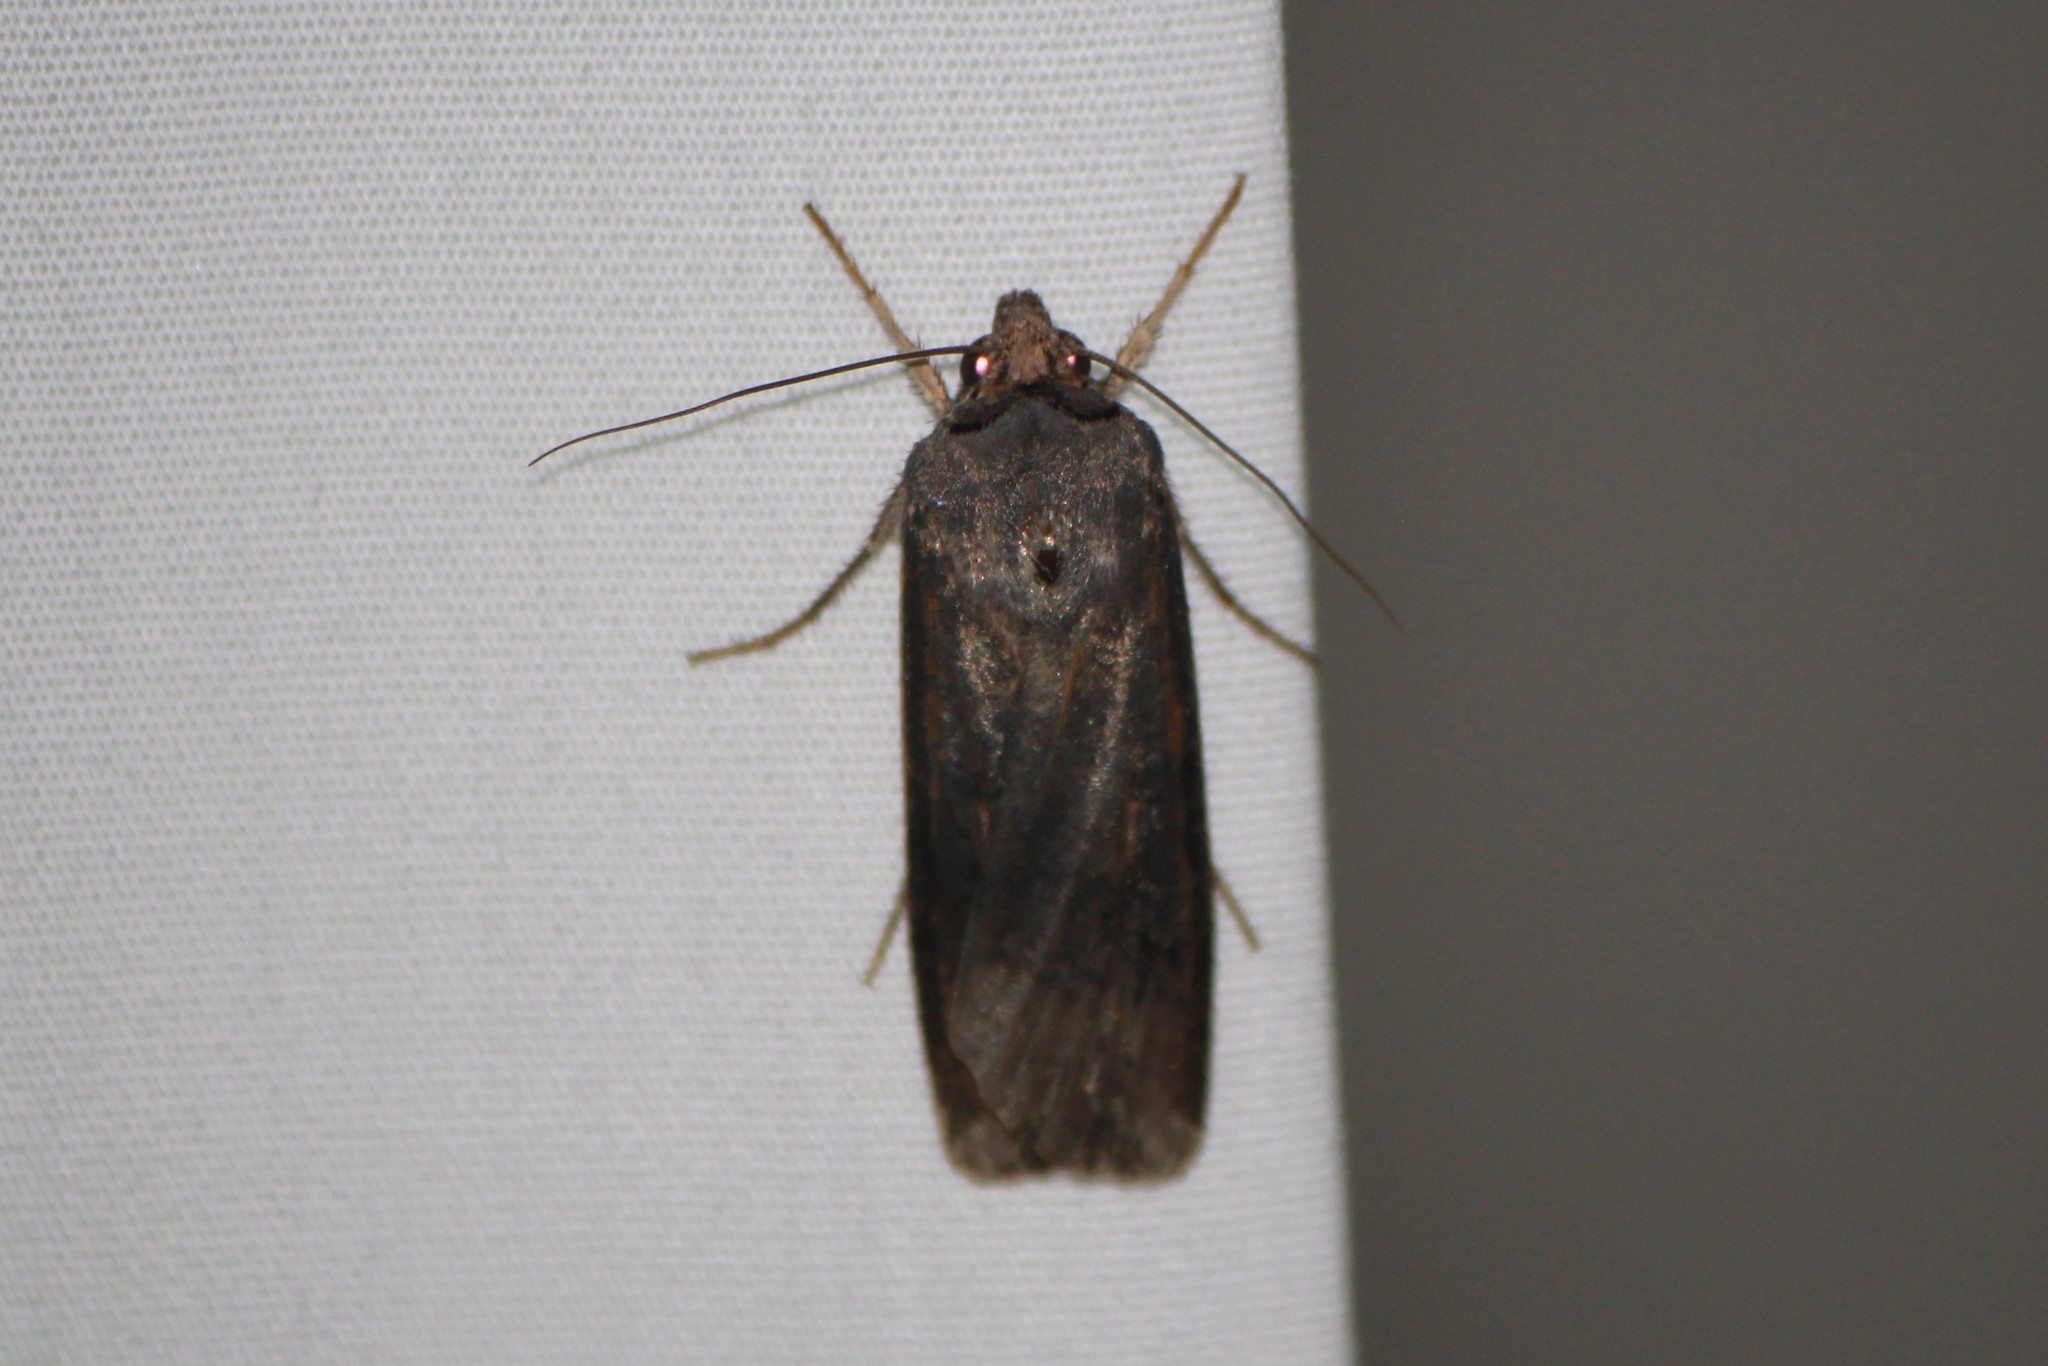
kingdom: Animalia
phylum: Arthropoda
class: Insecta
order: Lepidoptera
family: Noctuidae
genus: Agrotis
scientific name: Agrotis ipsilon
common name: Dark sword-grass
